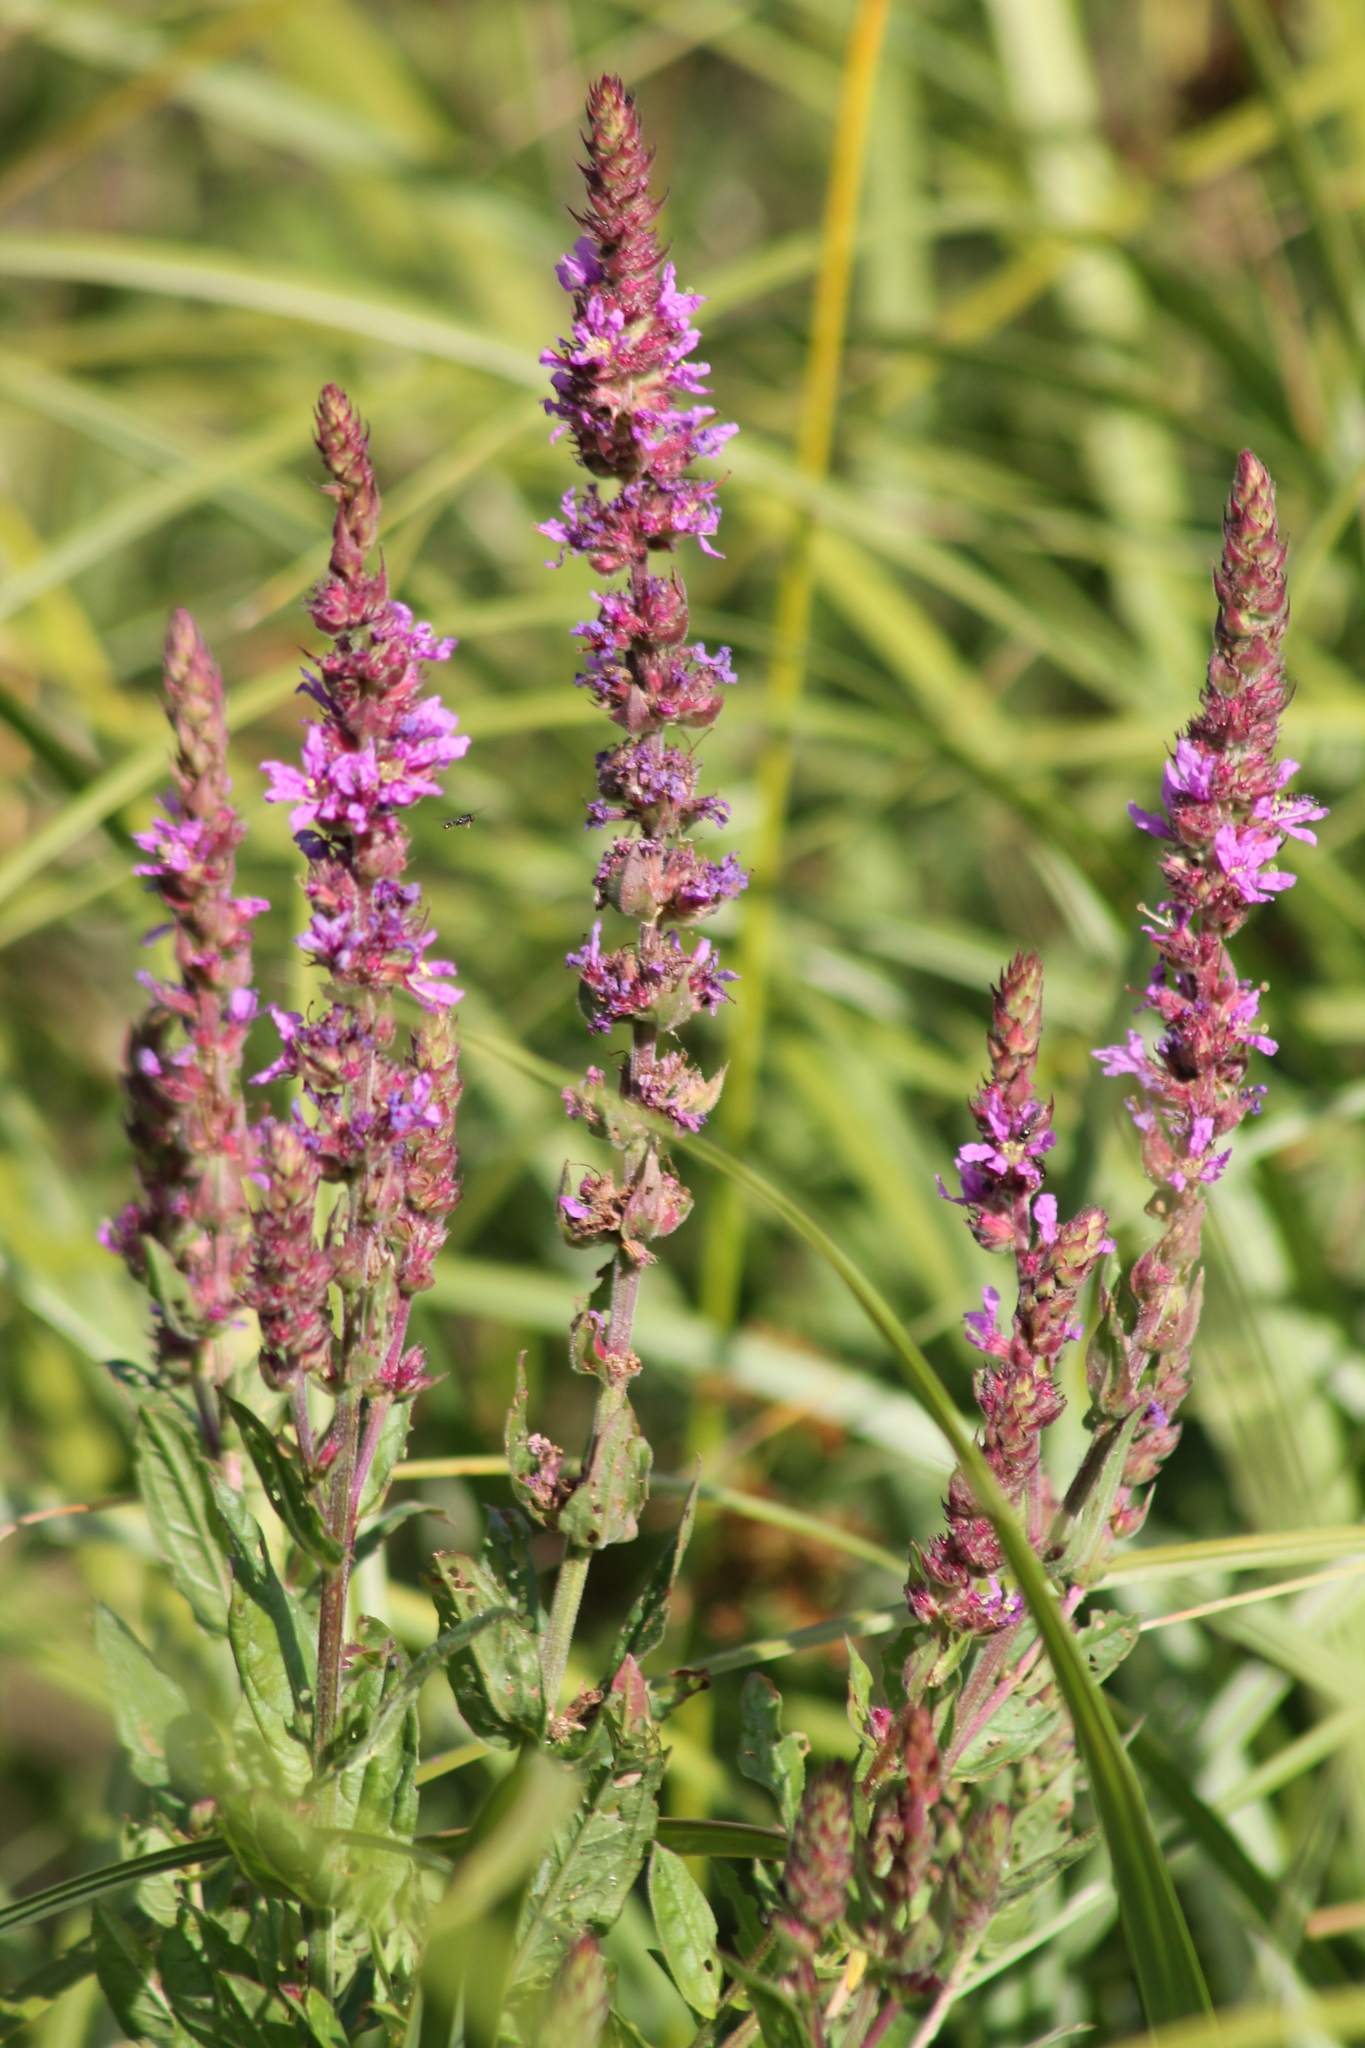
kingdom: Plantae
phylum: Tracheophyta
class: Magnoliopsida
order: Myrtales
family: Lythraceae
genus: Lythrum
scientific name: Lythrum salicaria
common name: Purple loosestrife
